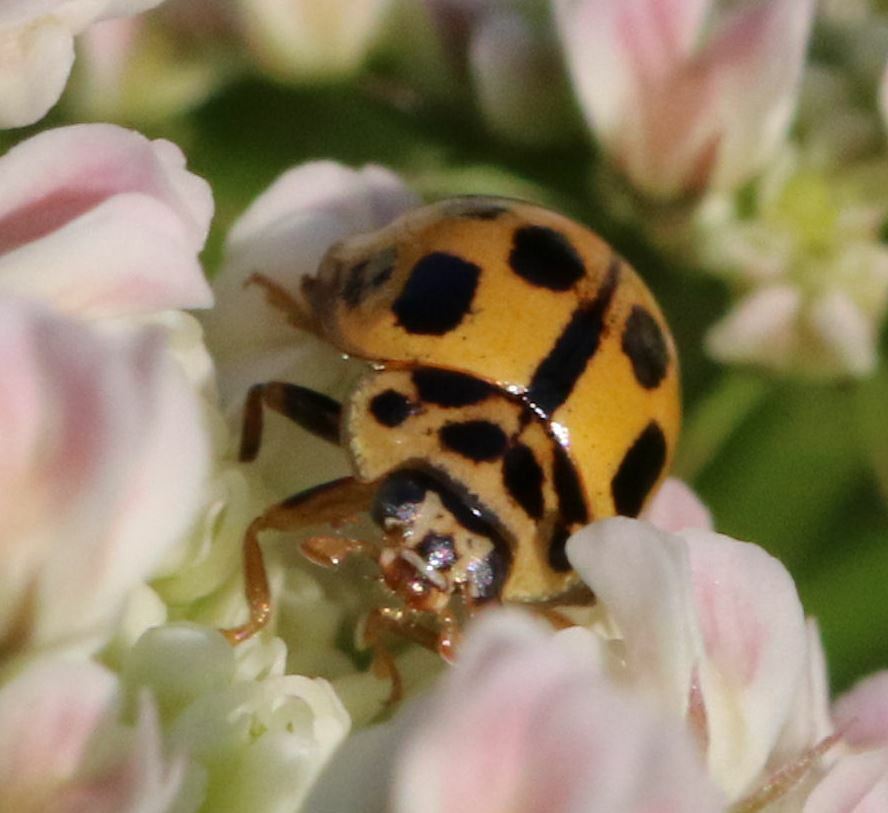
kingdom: Animalia
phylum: Arthropoda
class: Insecta
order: Coleoptera
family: Coccinellidae
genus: Propylaea
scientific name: Propylaea quatuordecimpunctata
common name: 14-spotted ladybird beetle
